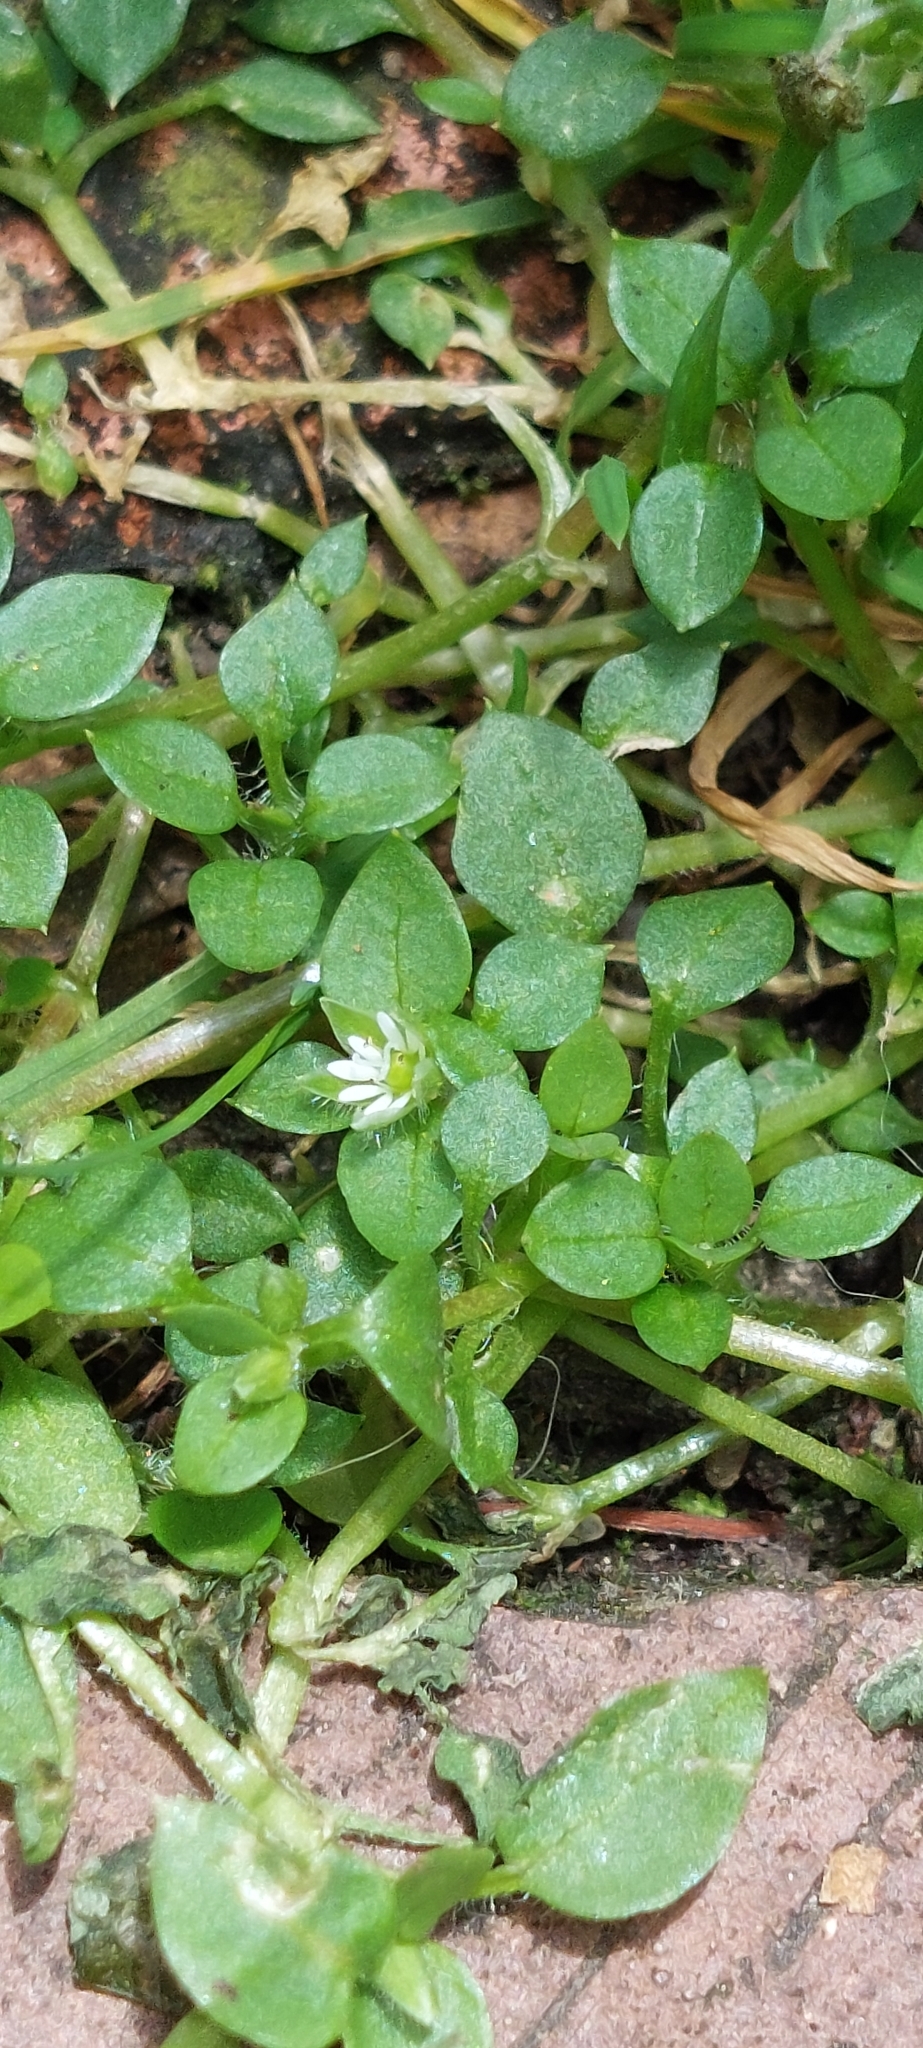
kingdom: Plantae
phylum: Tracheophyta
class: Magnoliopsida
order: Caryophyllales
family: Caryophyllaceae
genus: Stellaria
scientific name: Stellaria media
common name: Common chickweed
